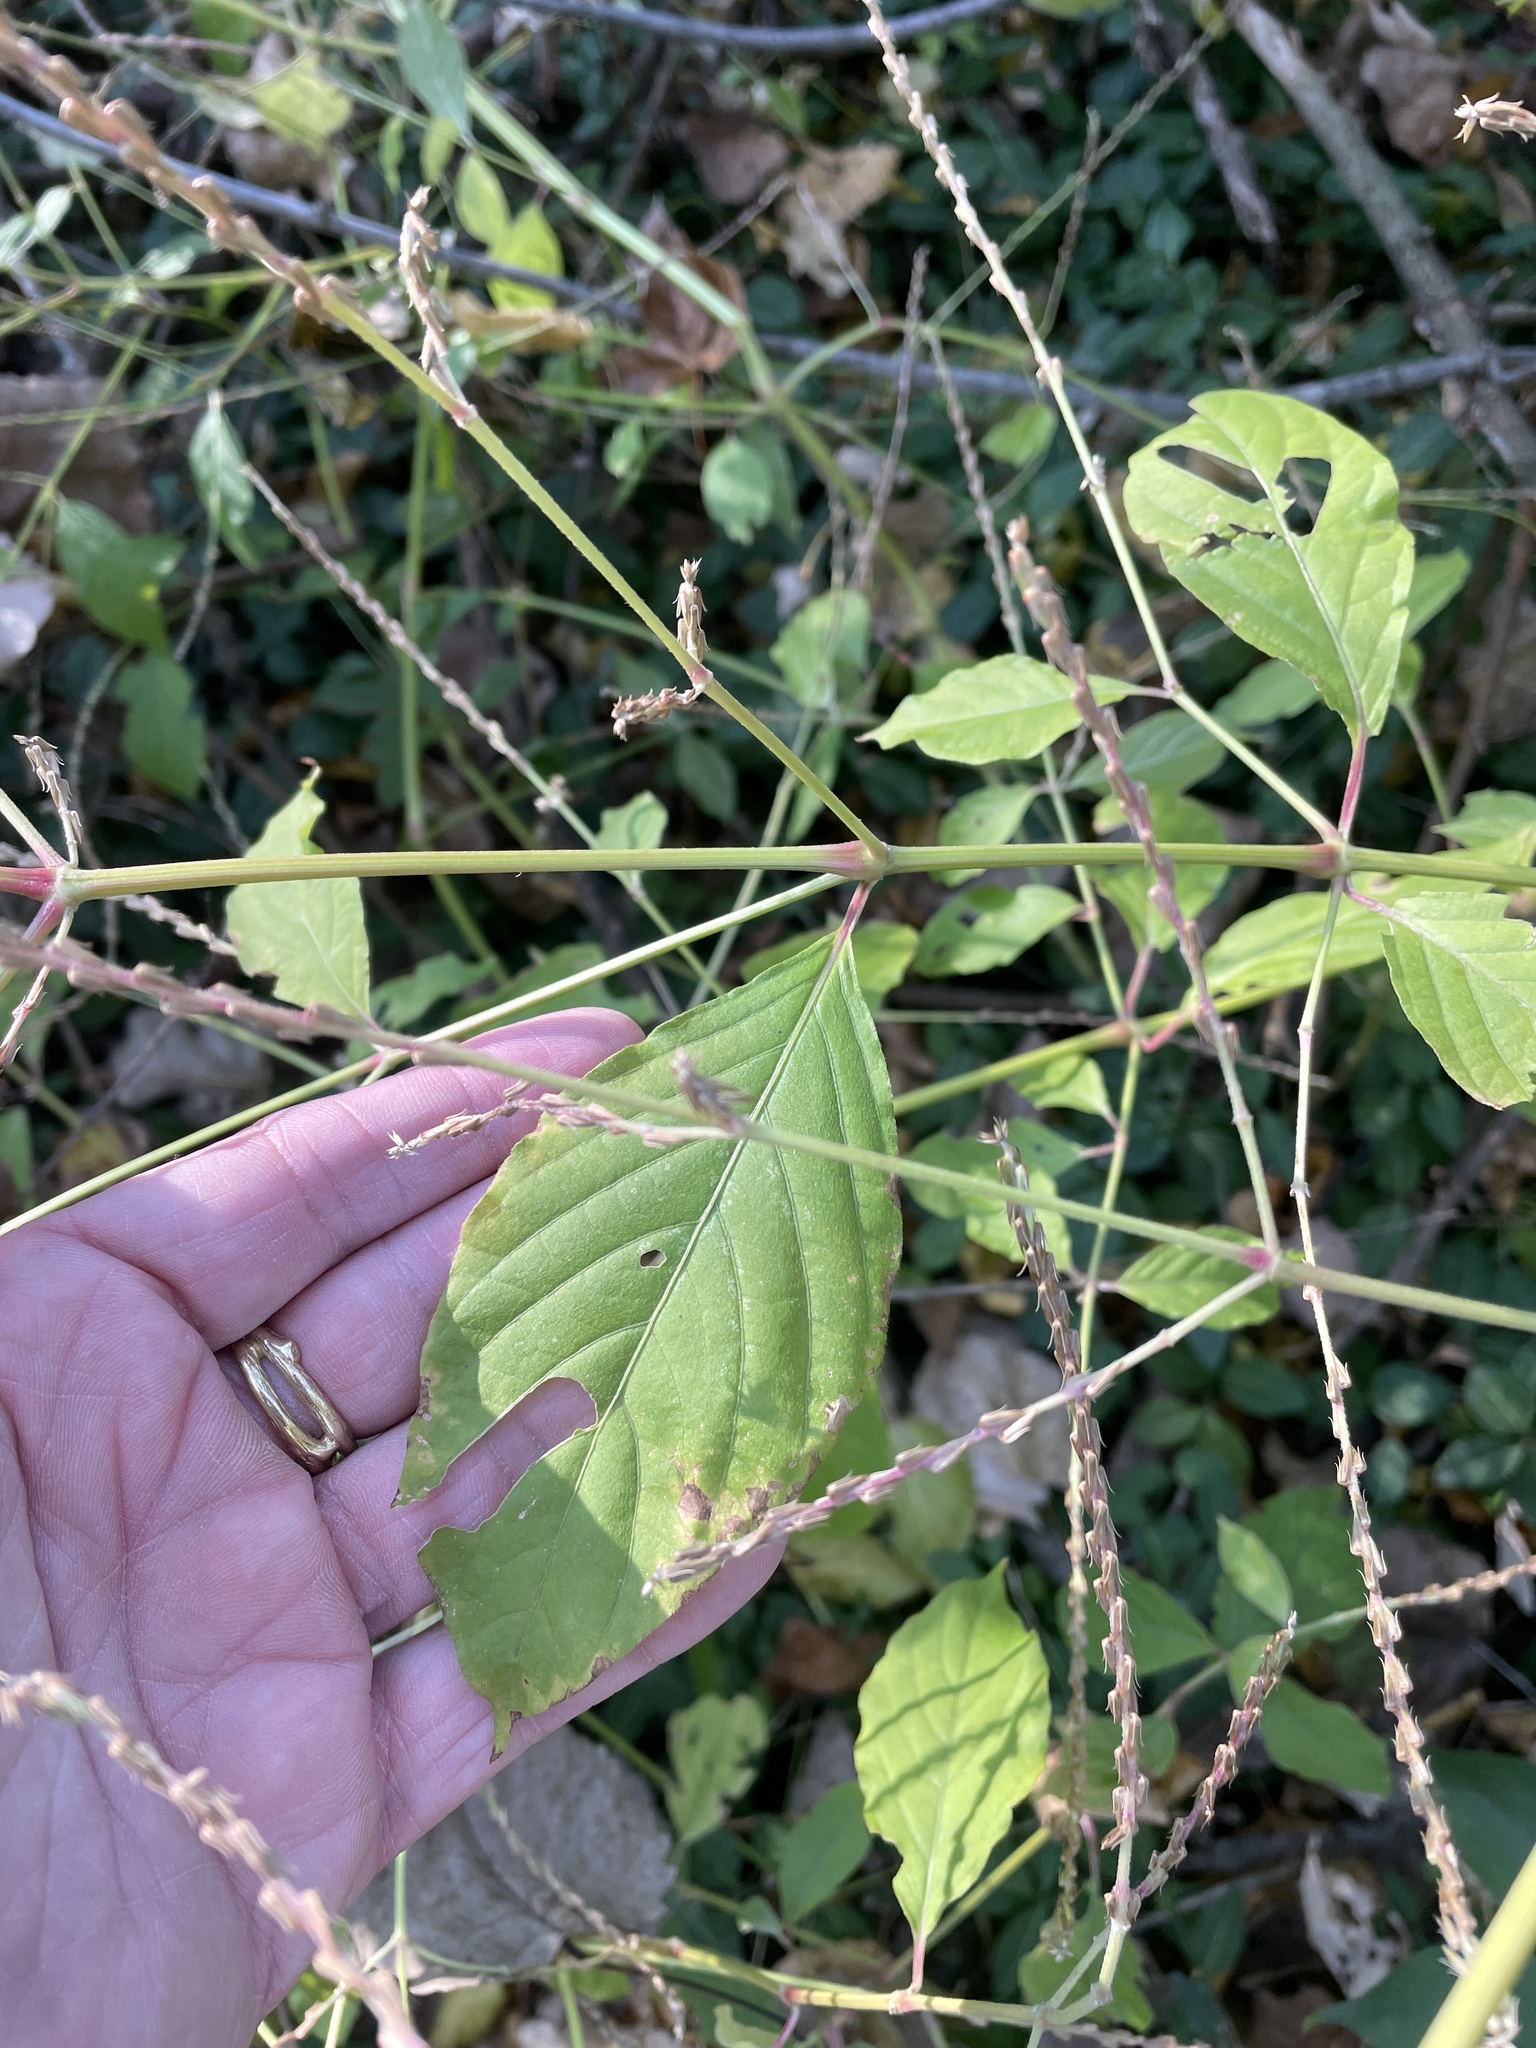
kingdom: Plantae
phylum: Tracheophyta
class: Magnoliopsida
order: Caryophyllales
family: Amaranthaceae
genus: Achyranthes
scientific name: Achyranthes bidentata
